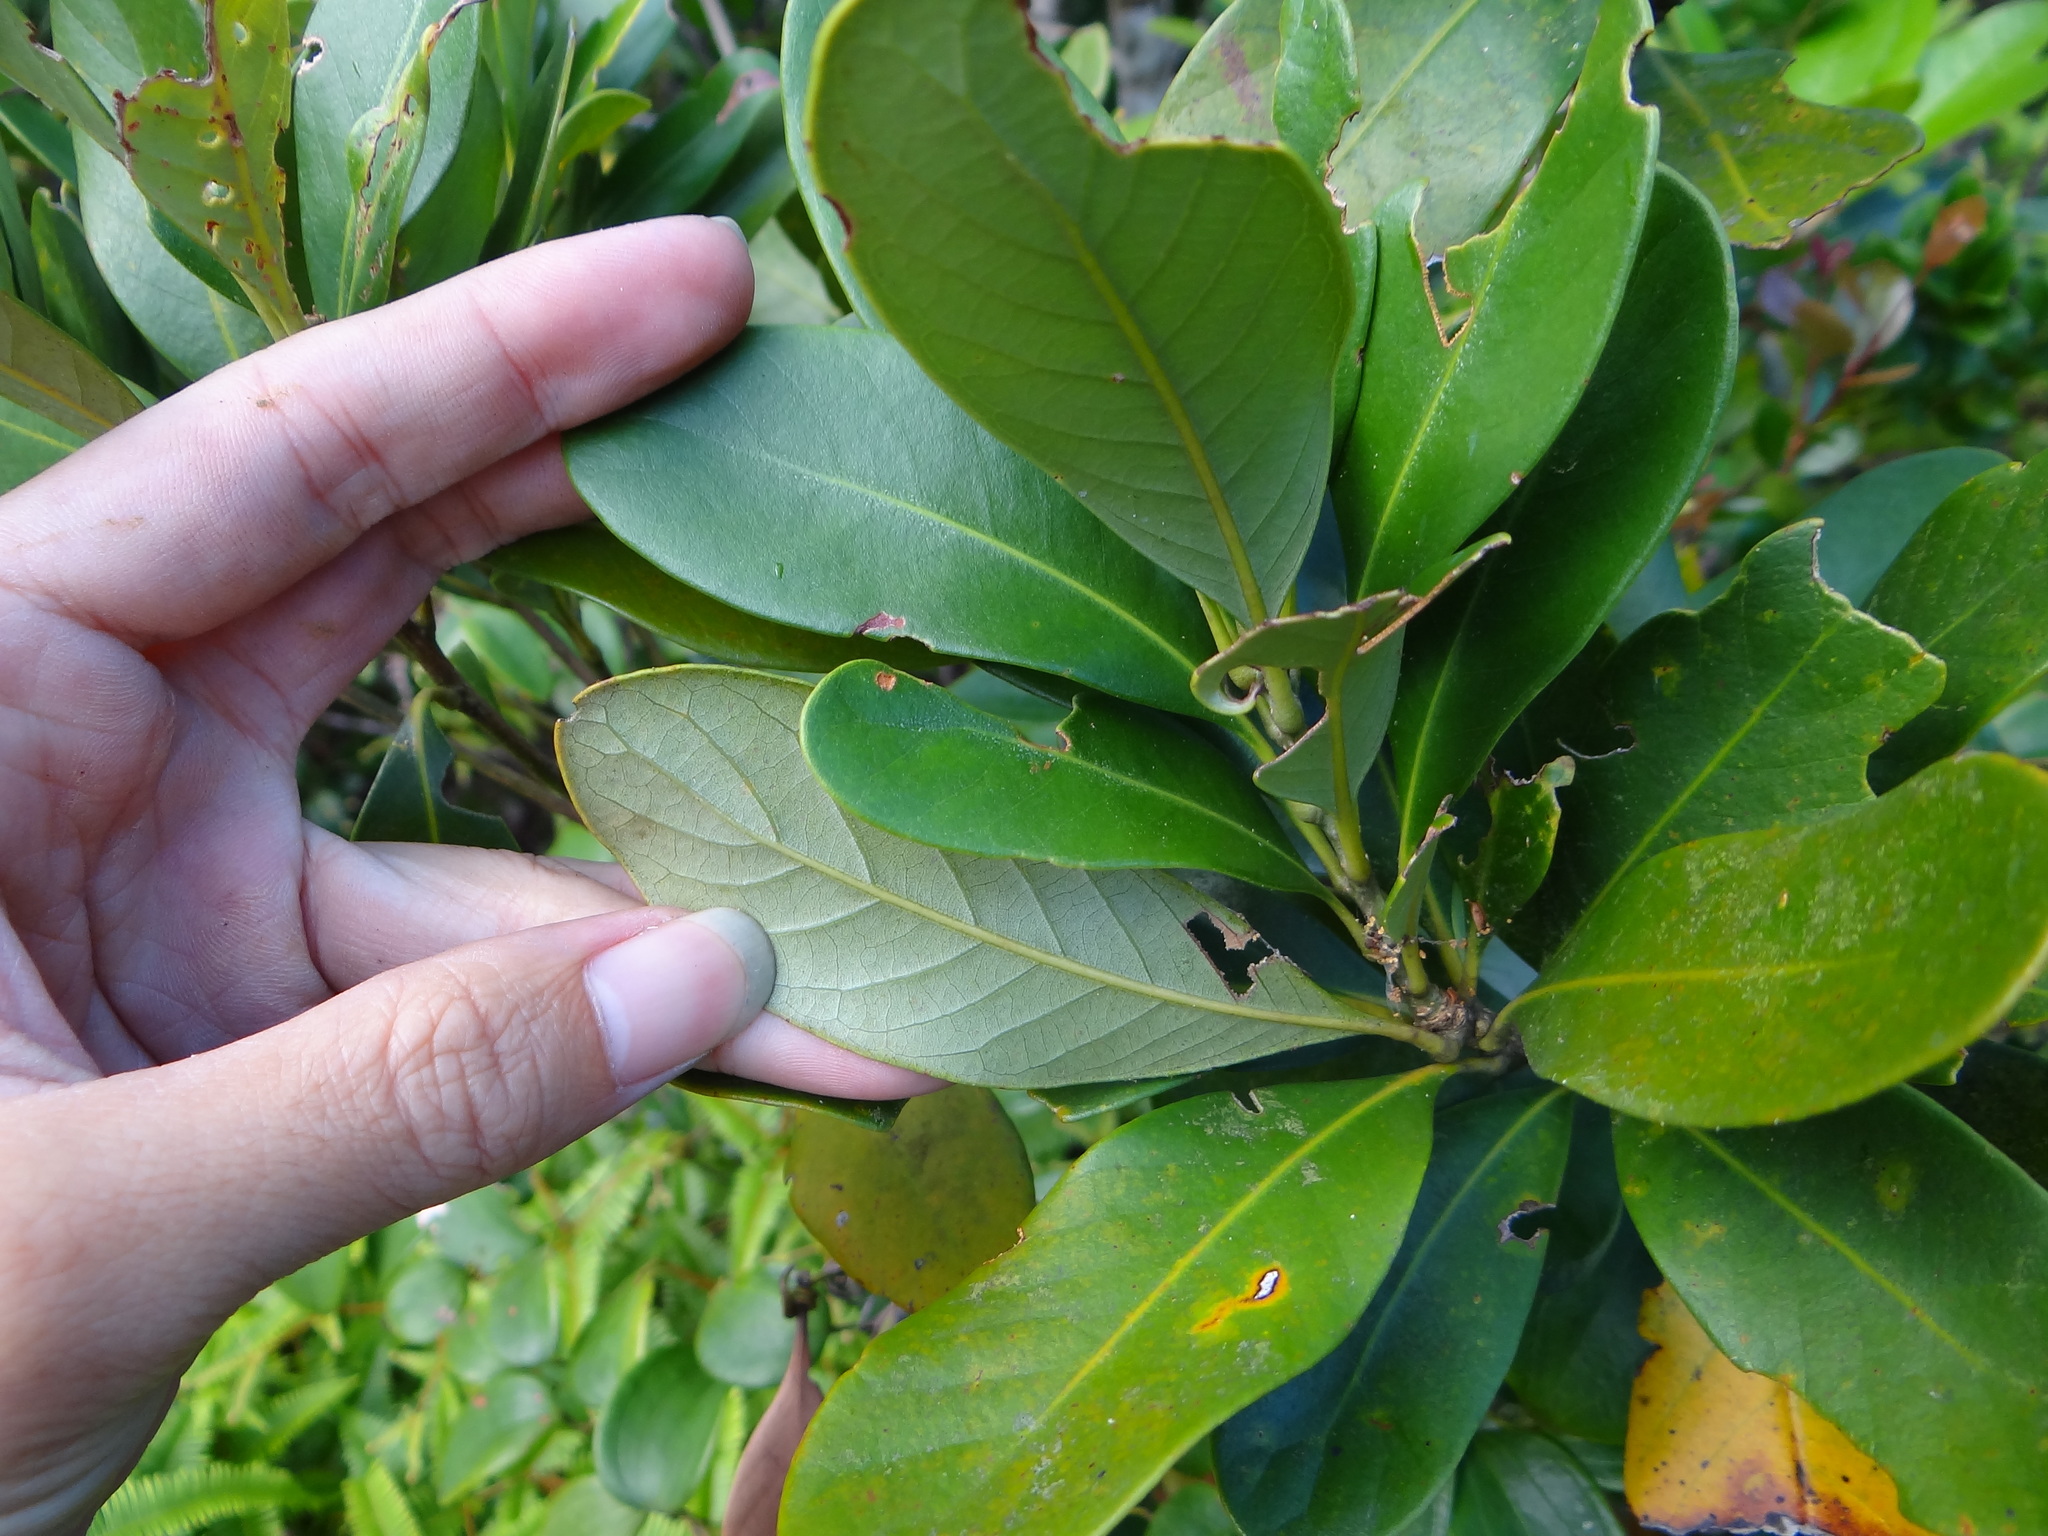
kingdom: Plantae
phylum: Tracheophyta
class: Magnoliopsida
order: Fagales
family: Fagaceae
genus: Lithocarpus
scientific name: Lithocarpus formosanus
